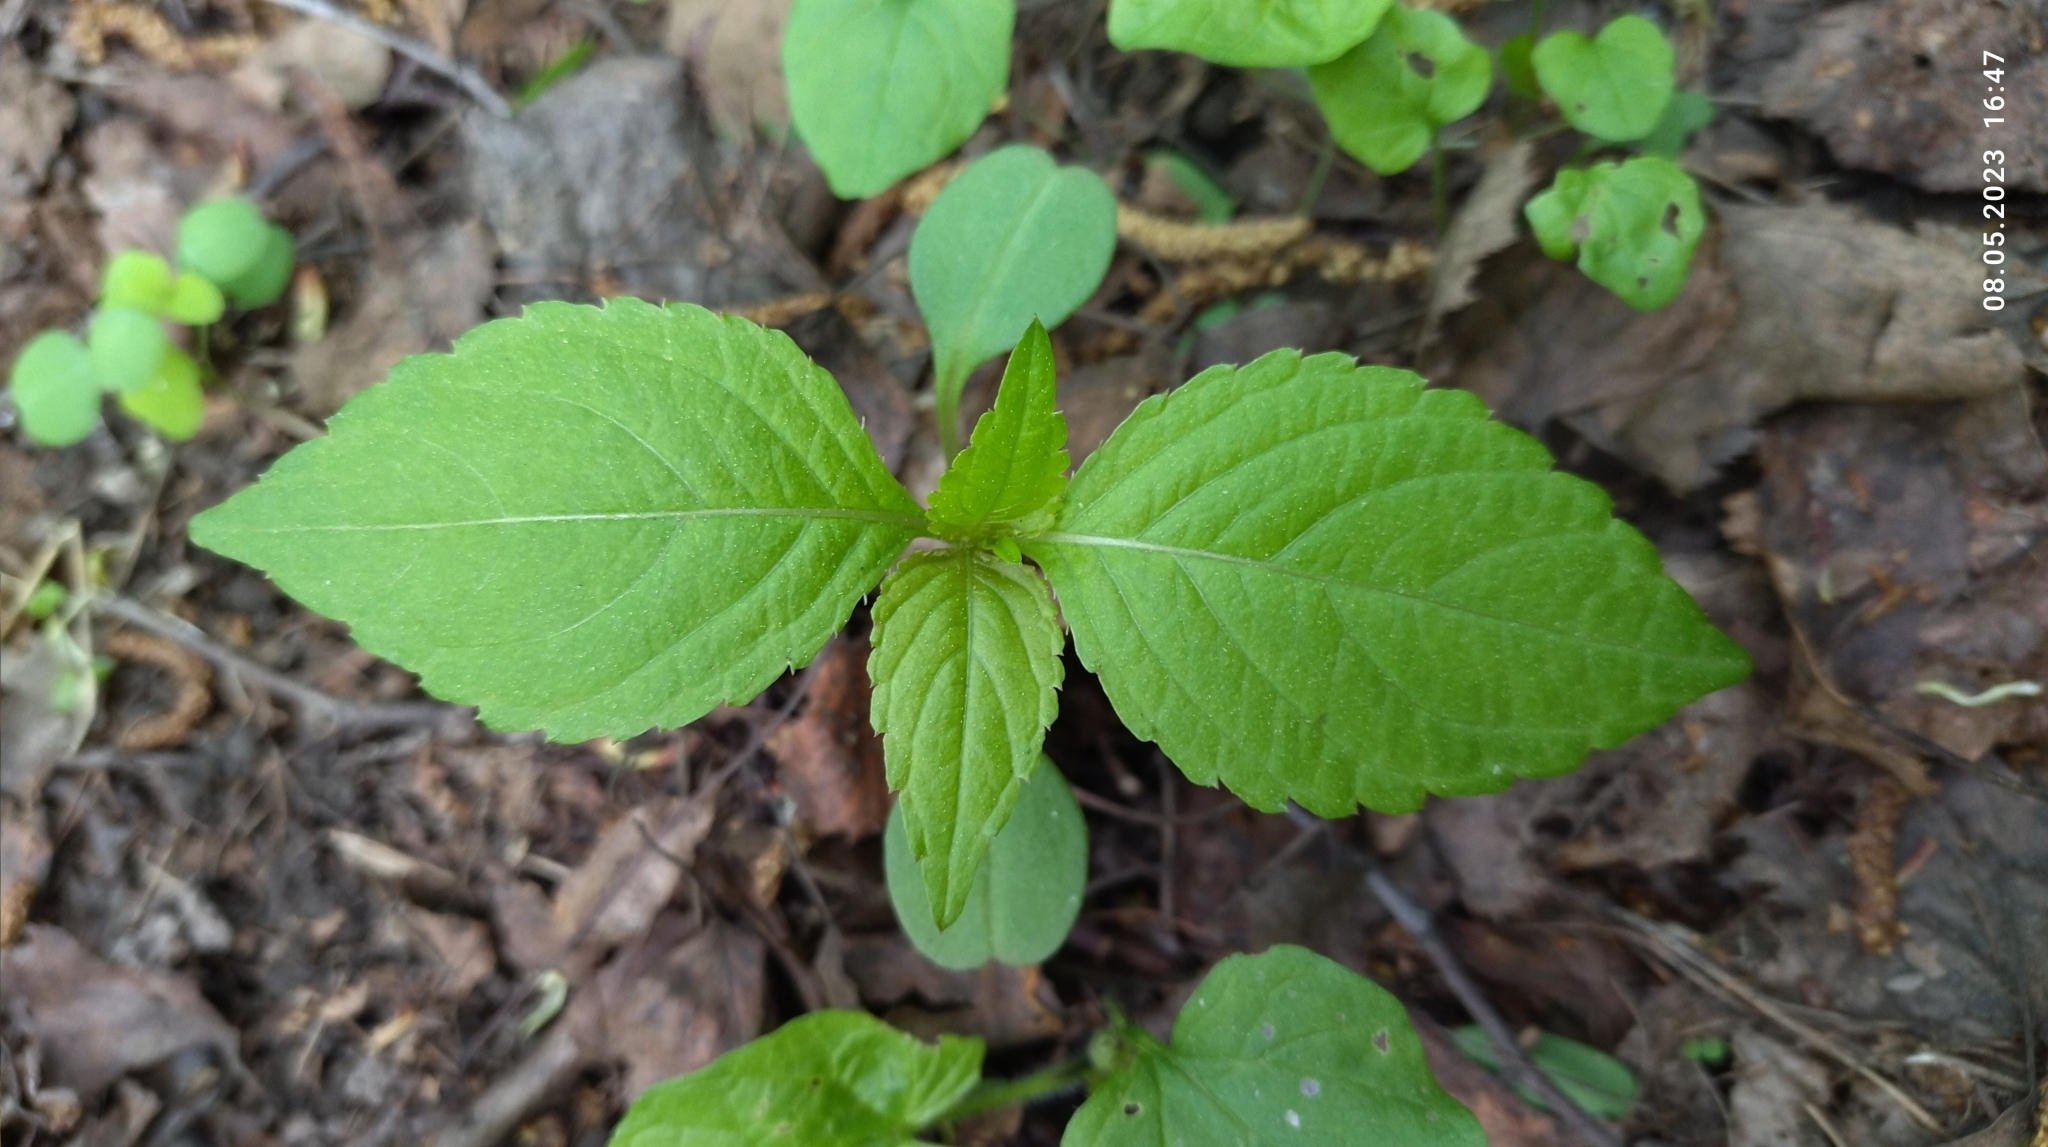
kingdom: Plantae
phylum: Tracheophyta
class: Magnoliopsida
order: Ericales
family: Balsaminaceae
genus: Impatiens
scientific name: Impatiens parviflora
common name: Small balsam
